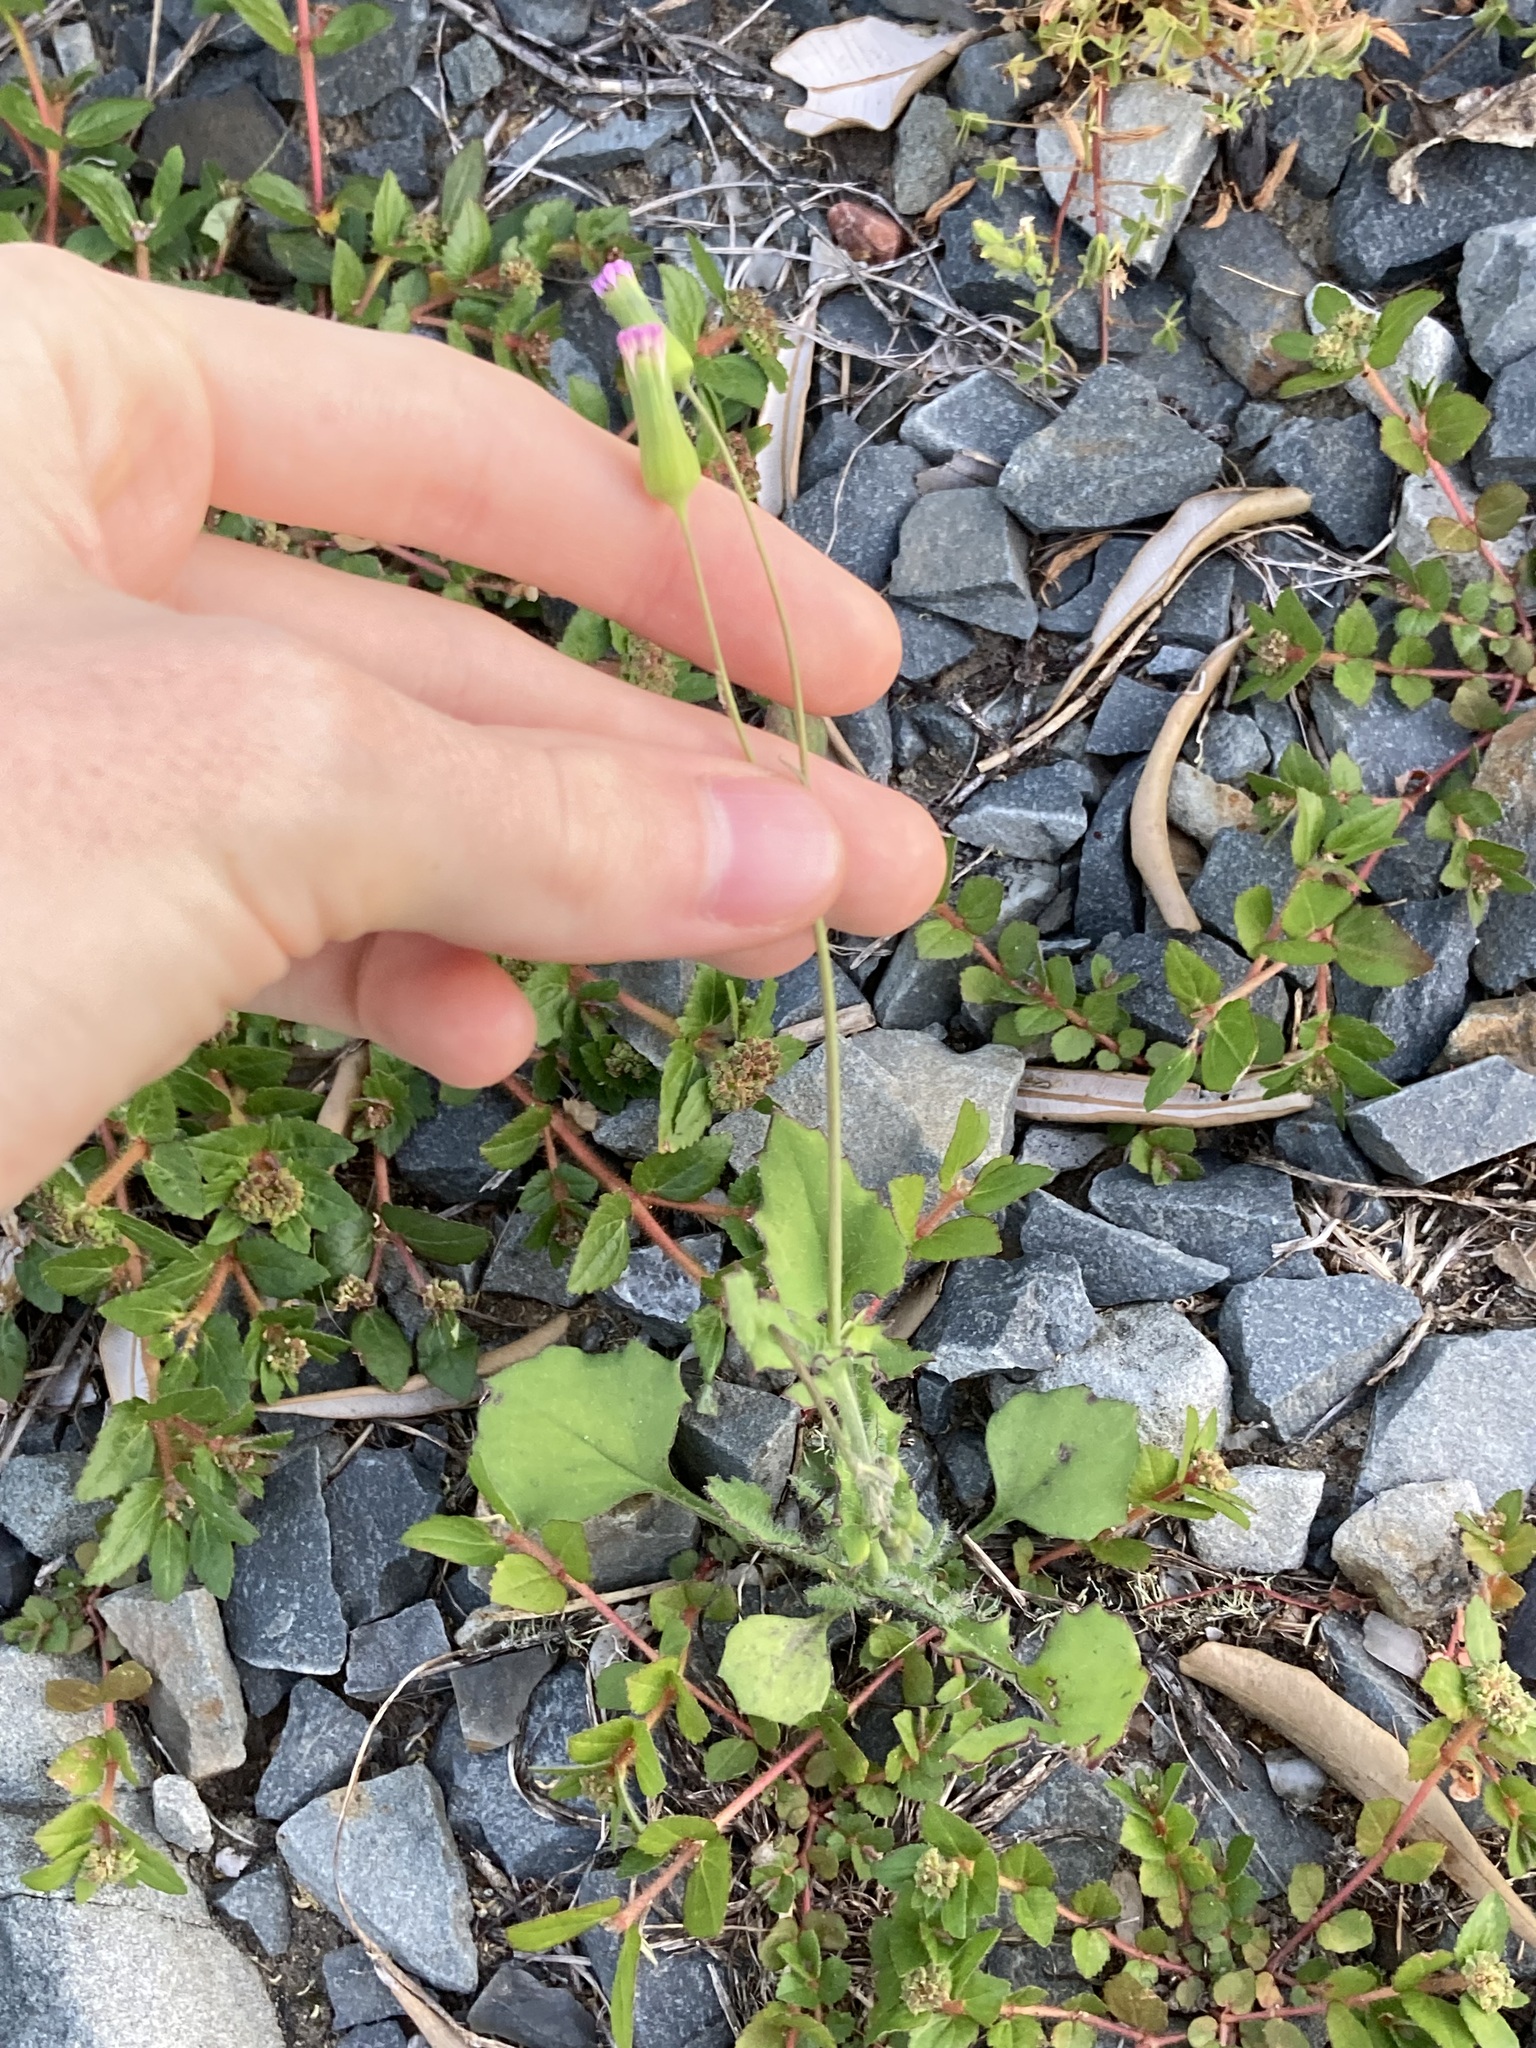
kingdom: Plantae
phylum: Tracheophyta
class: Magnoliopsida
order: Asterales
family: Asteraceae
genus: Emilia
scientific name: Emilia javanica
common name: Tassel-flower
